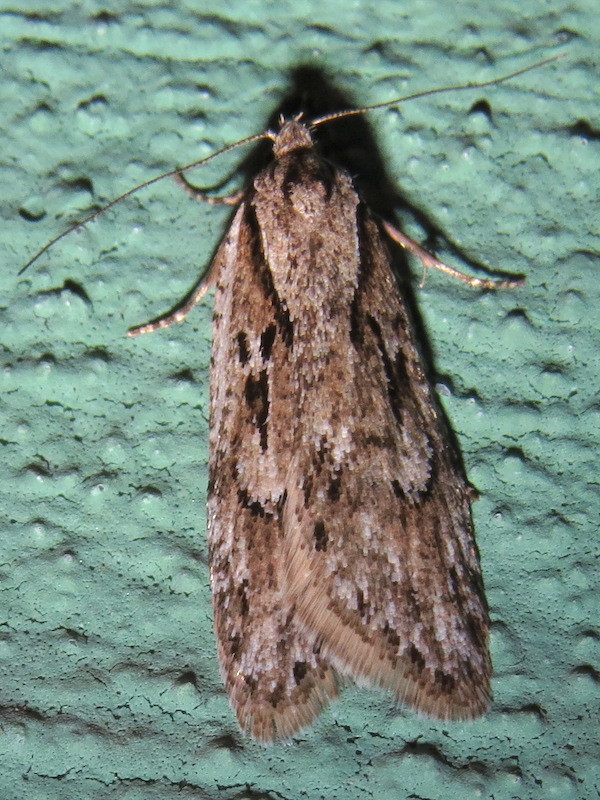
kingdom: Animalia
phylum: Arthropoda
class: Insecta
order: Lepidoptera
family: Depressariidae
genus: Semioscopis
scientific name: Semioscopis aurorella
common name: Aurora flatbody moth
